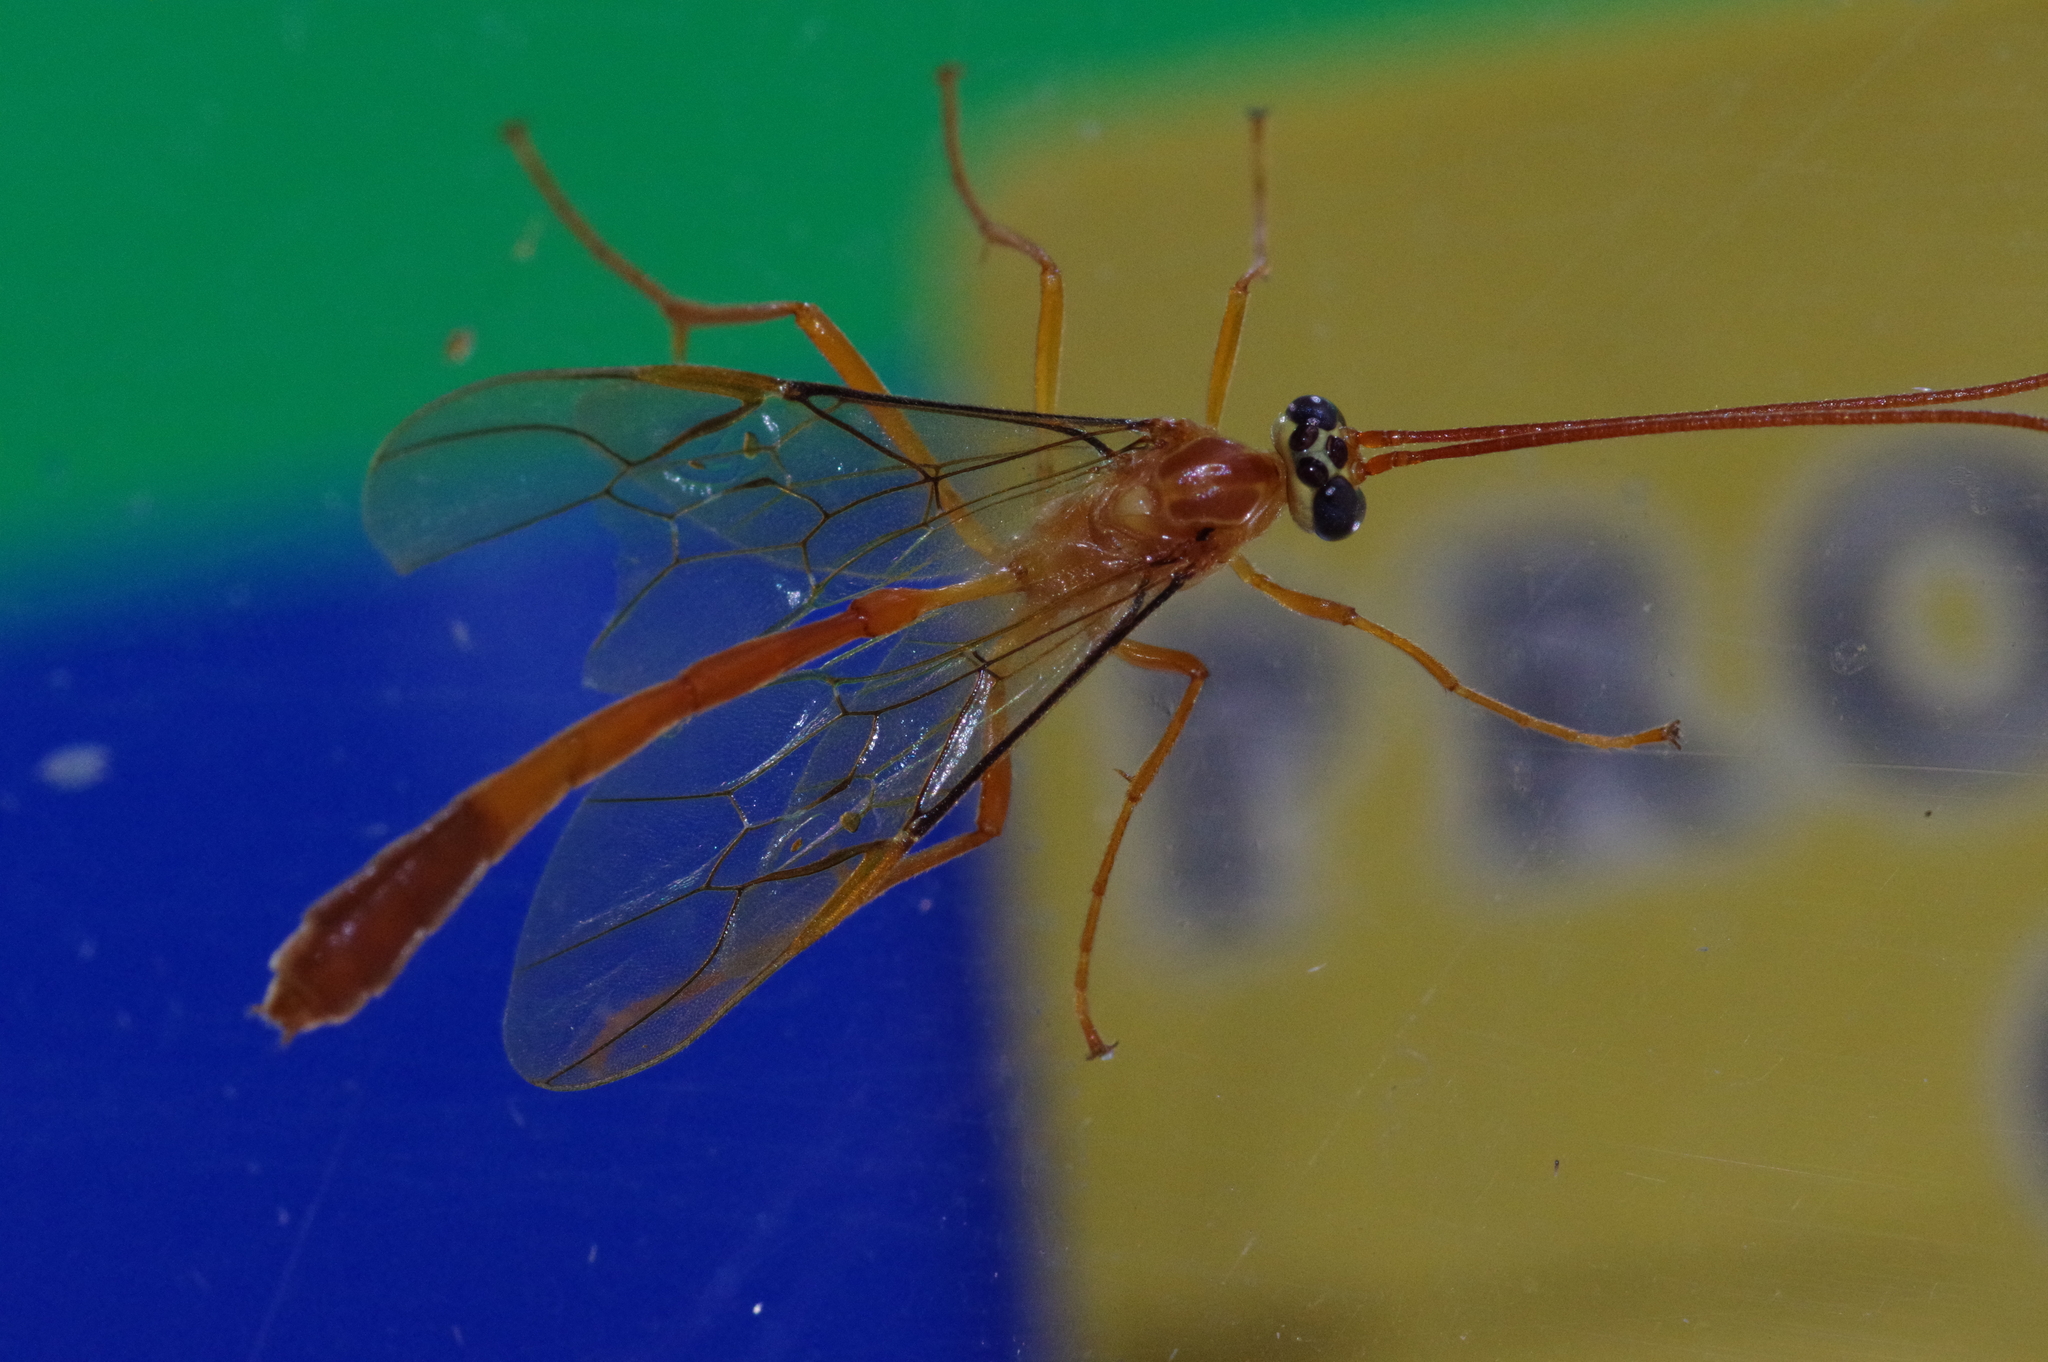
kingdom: Animalia
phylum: Arthropoda
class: Insecta
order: Hymenoptera
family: Ichneumonidae
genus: Enicospilus
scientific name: Enicospilus flavocephalus
